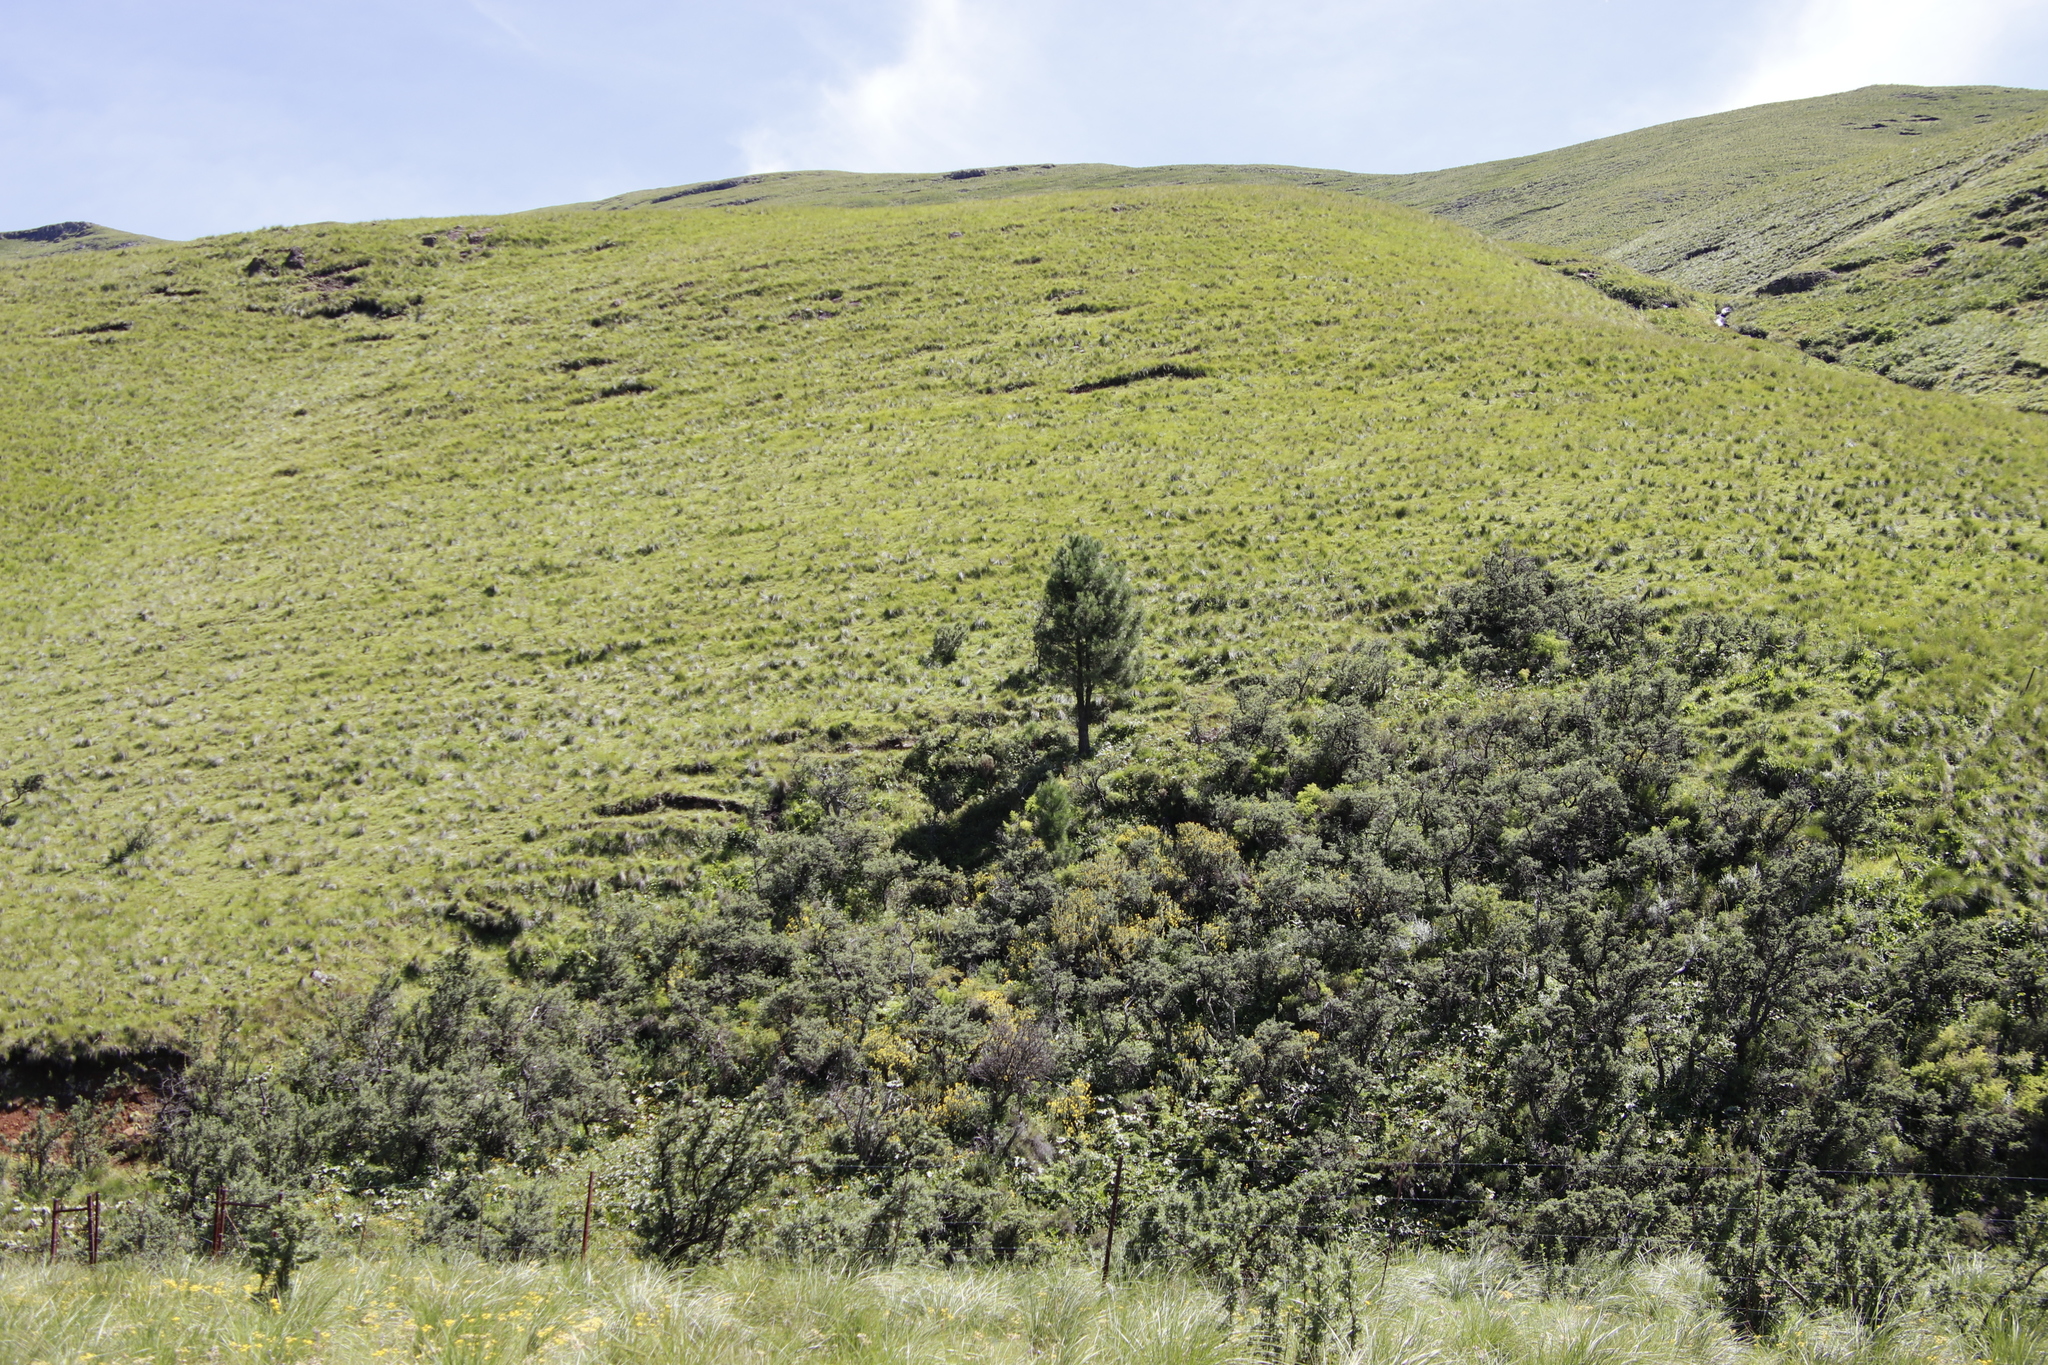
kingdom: Plantae
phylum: Tracheophyta
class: Pinopsida
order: Pinales
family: Pinaceae
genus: Pinus
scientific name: Pinus pinaster
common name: Maritime pine
